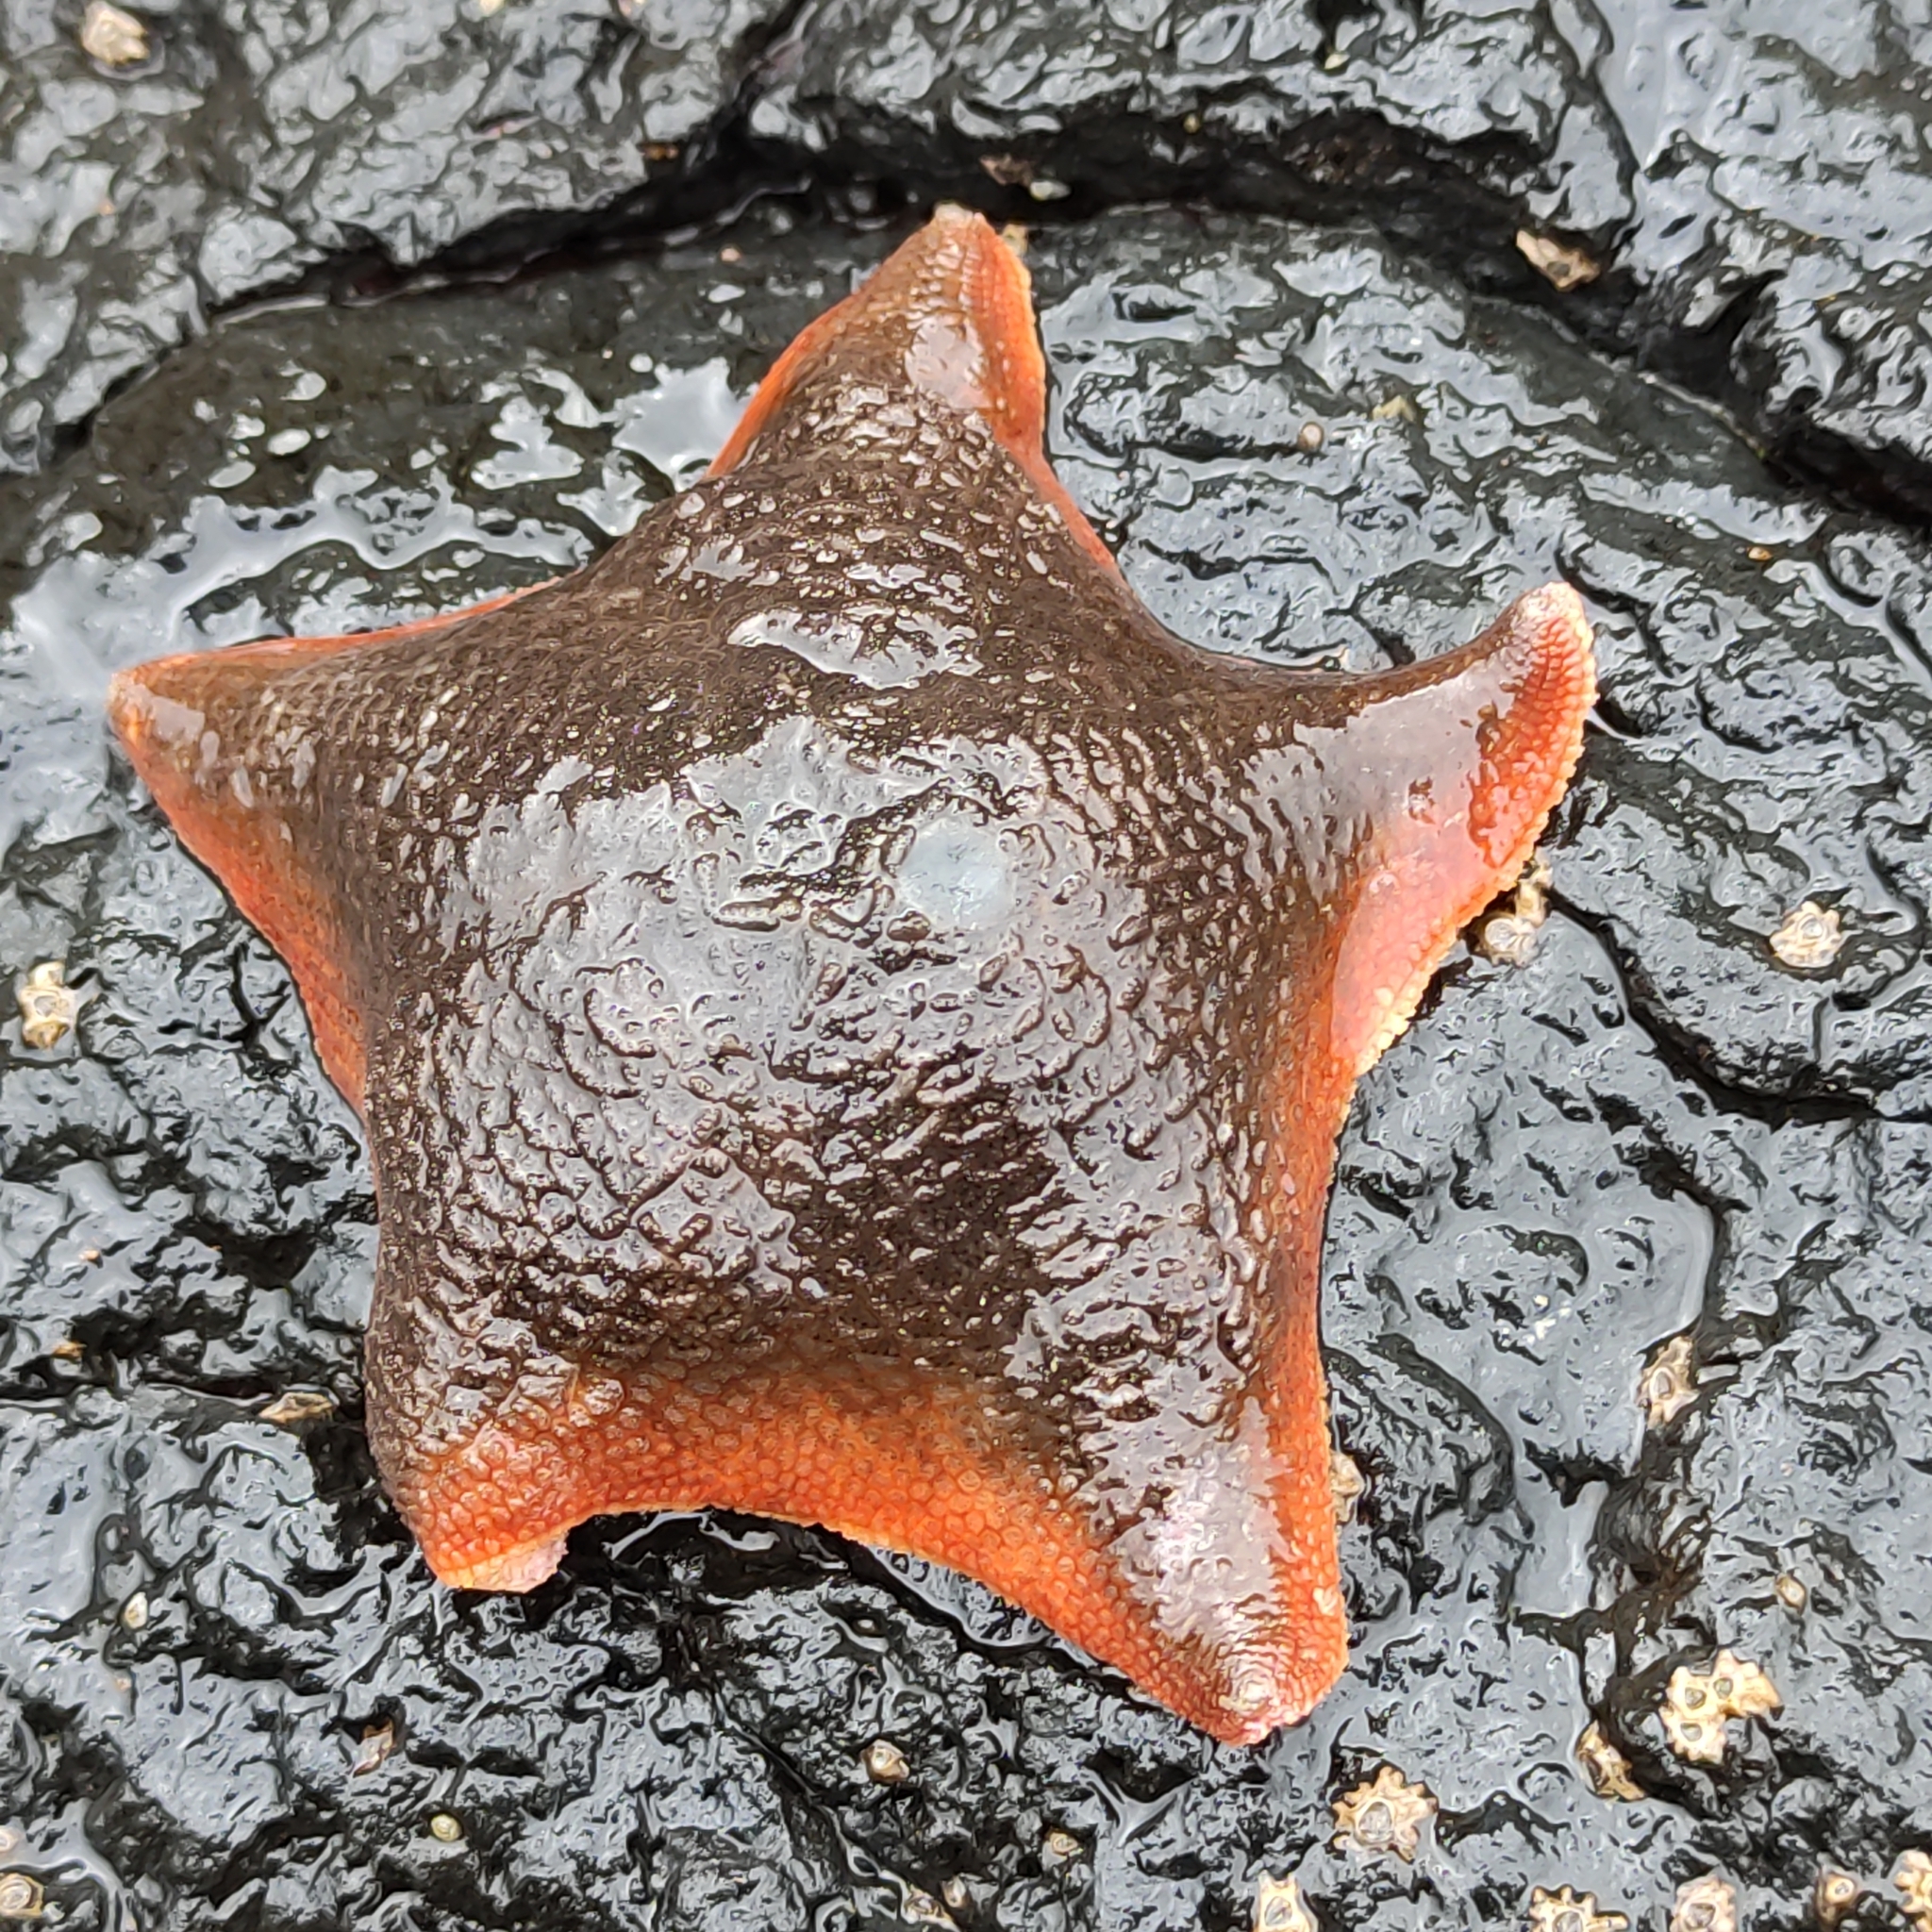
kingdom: Animalia
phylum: Echinodermata
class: Asteroidea
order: Valvatida
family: Asterinidae
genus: Patiriella
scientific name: Patiriella regularis
